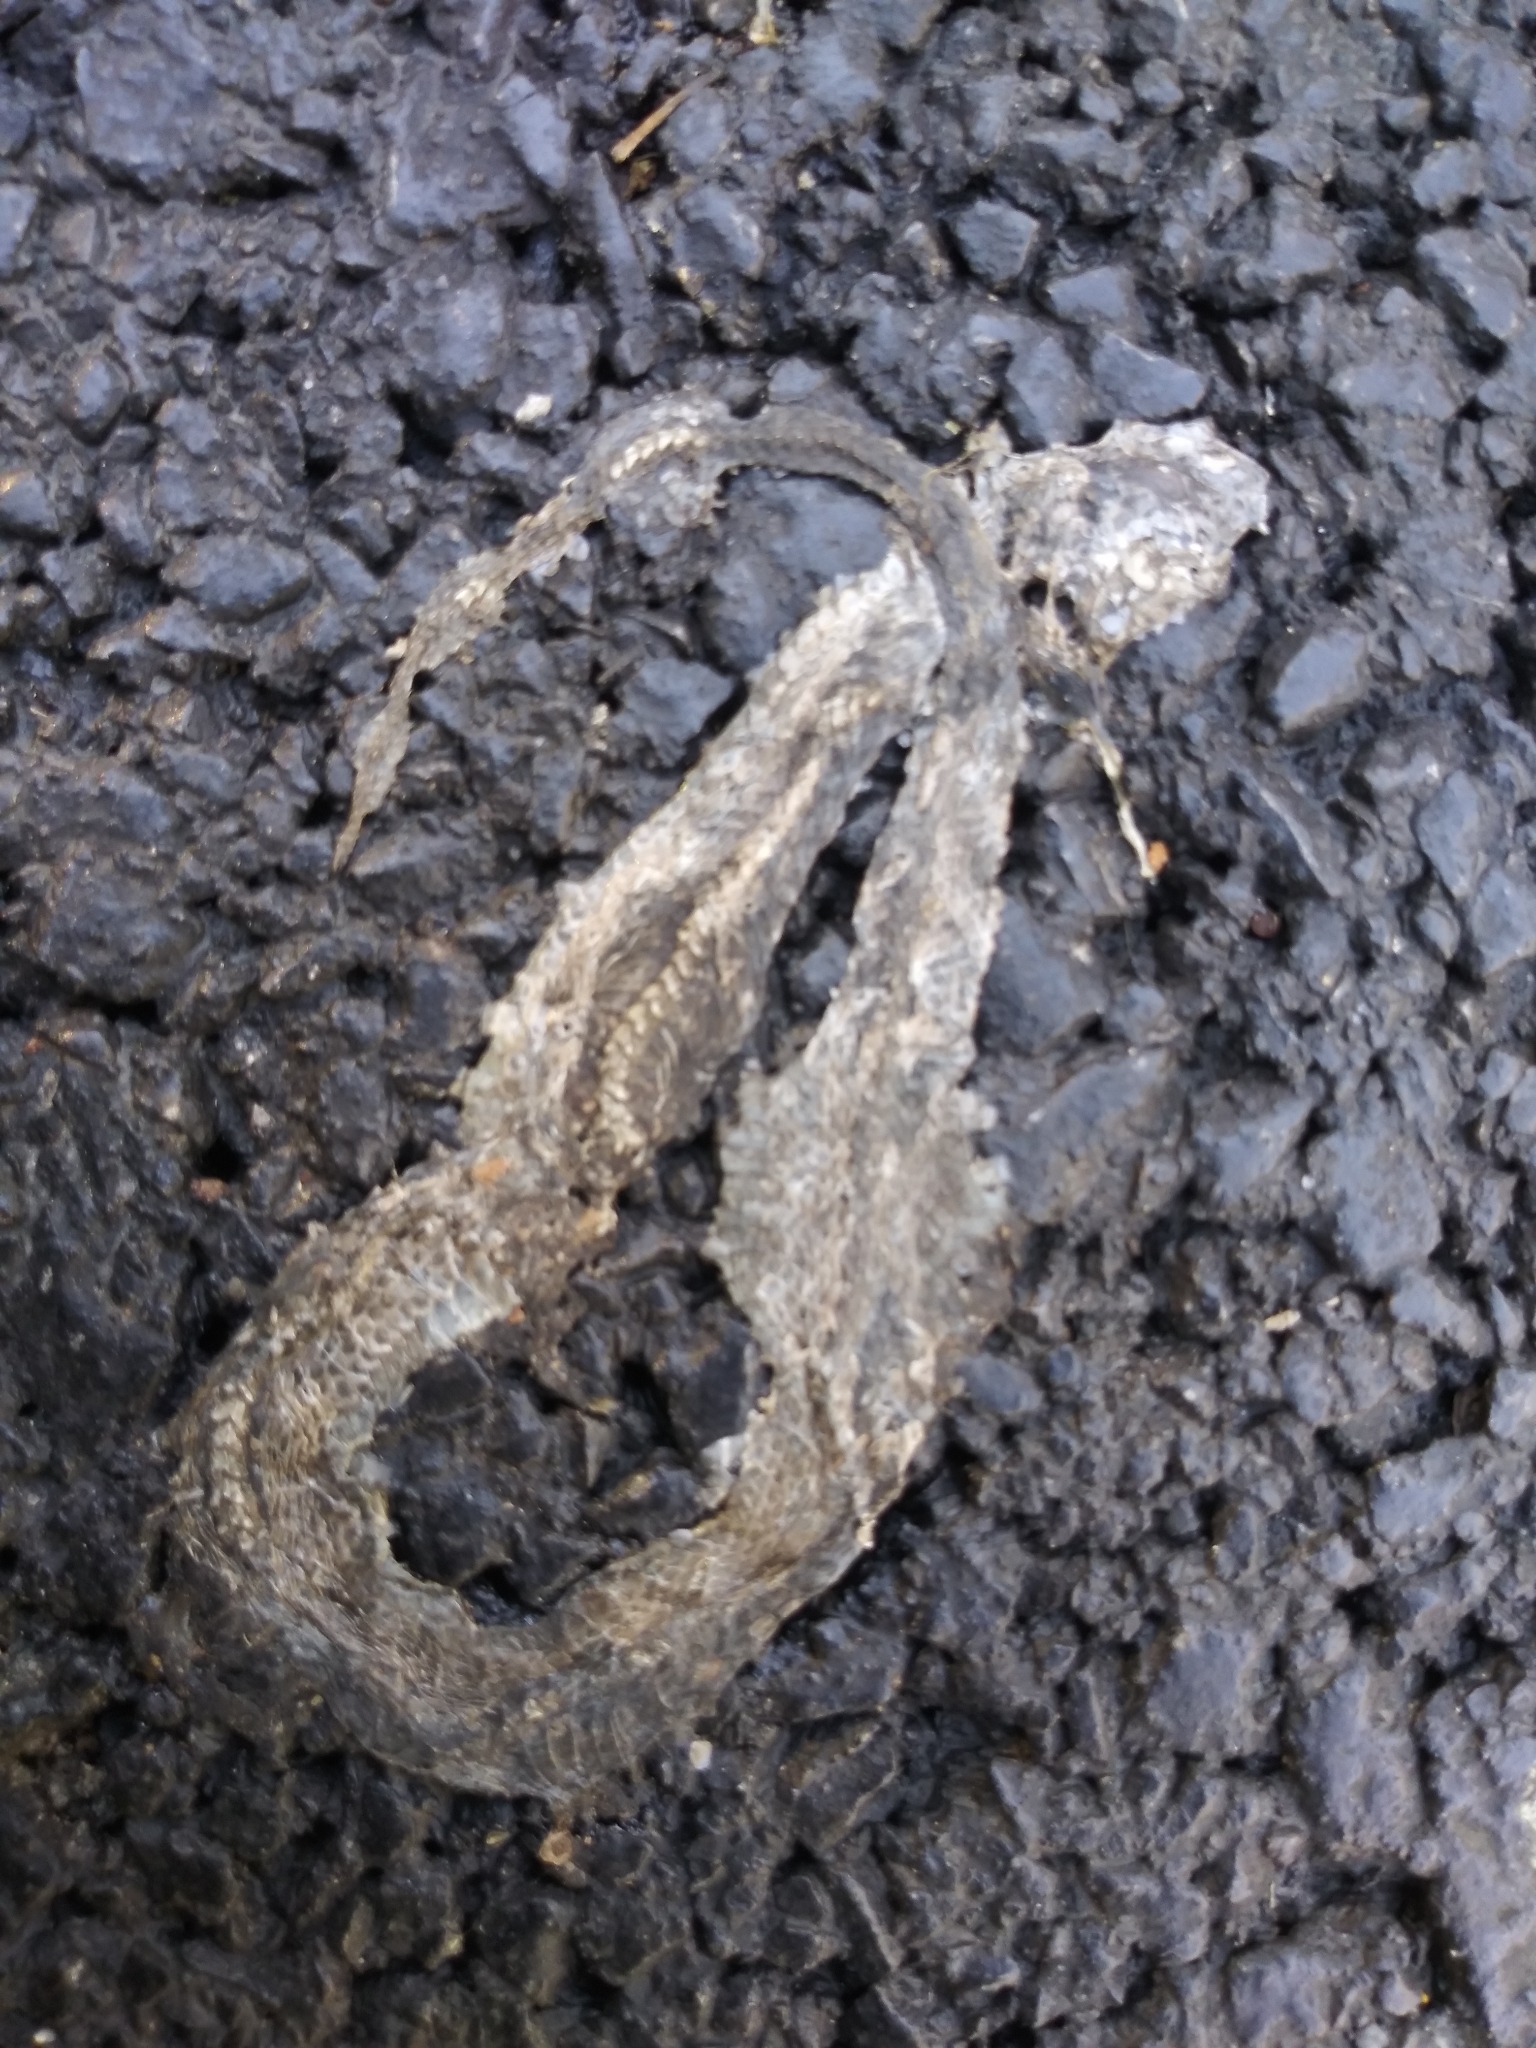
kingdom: Animalia
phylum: Chordata
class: Squamata
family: Colubridae
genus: Storeria
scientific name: Storeria dekayi
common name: (dekay’s) brown snake
